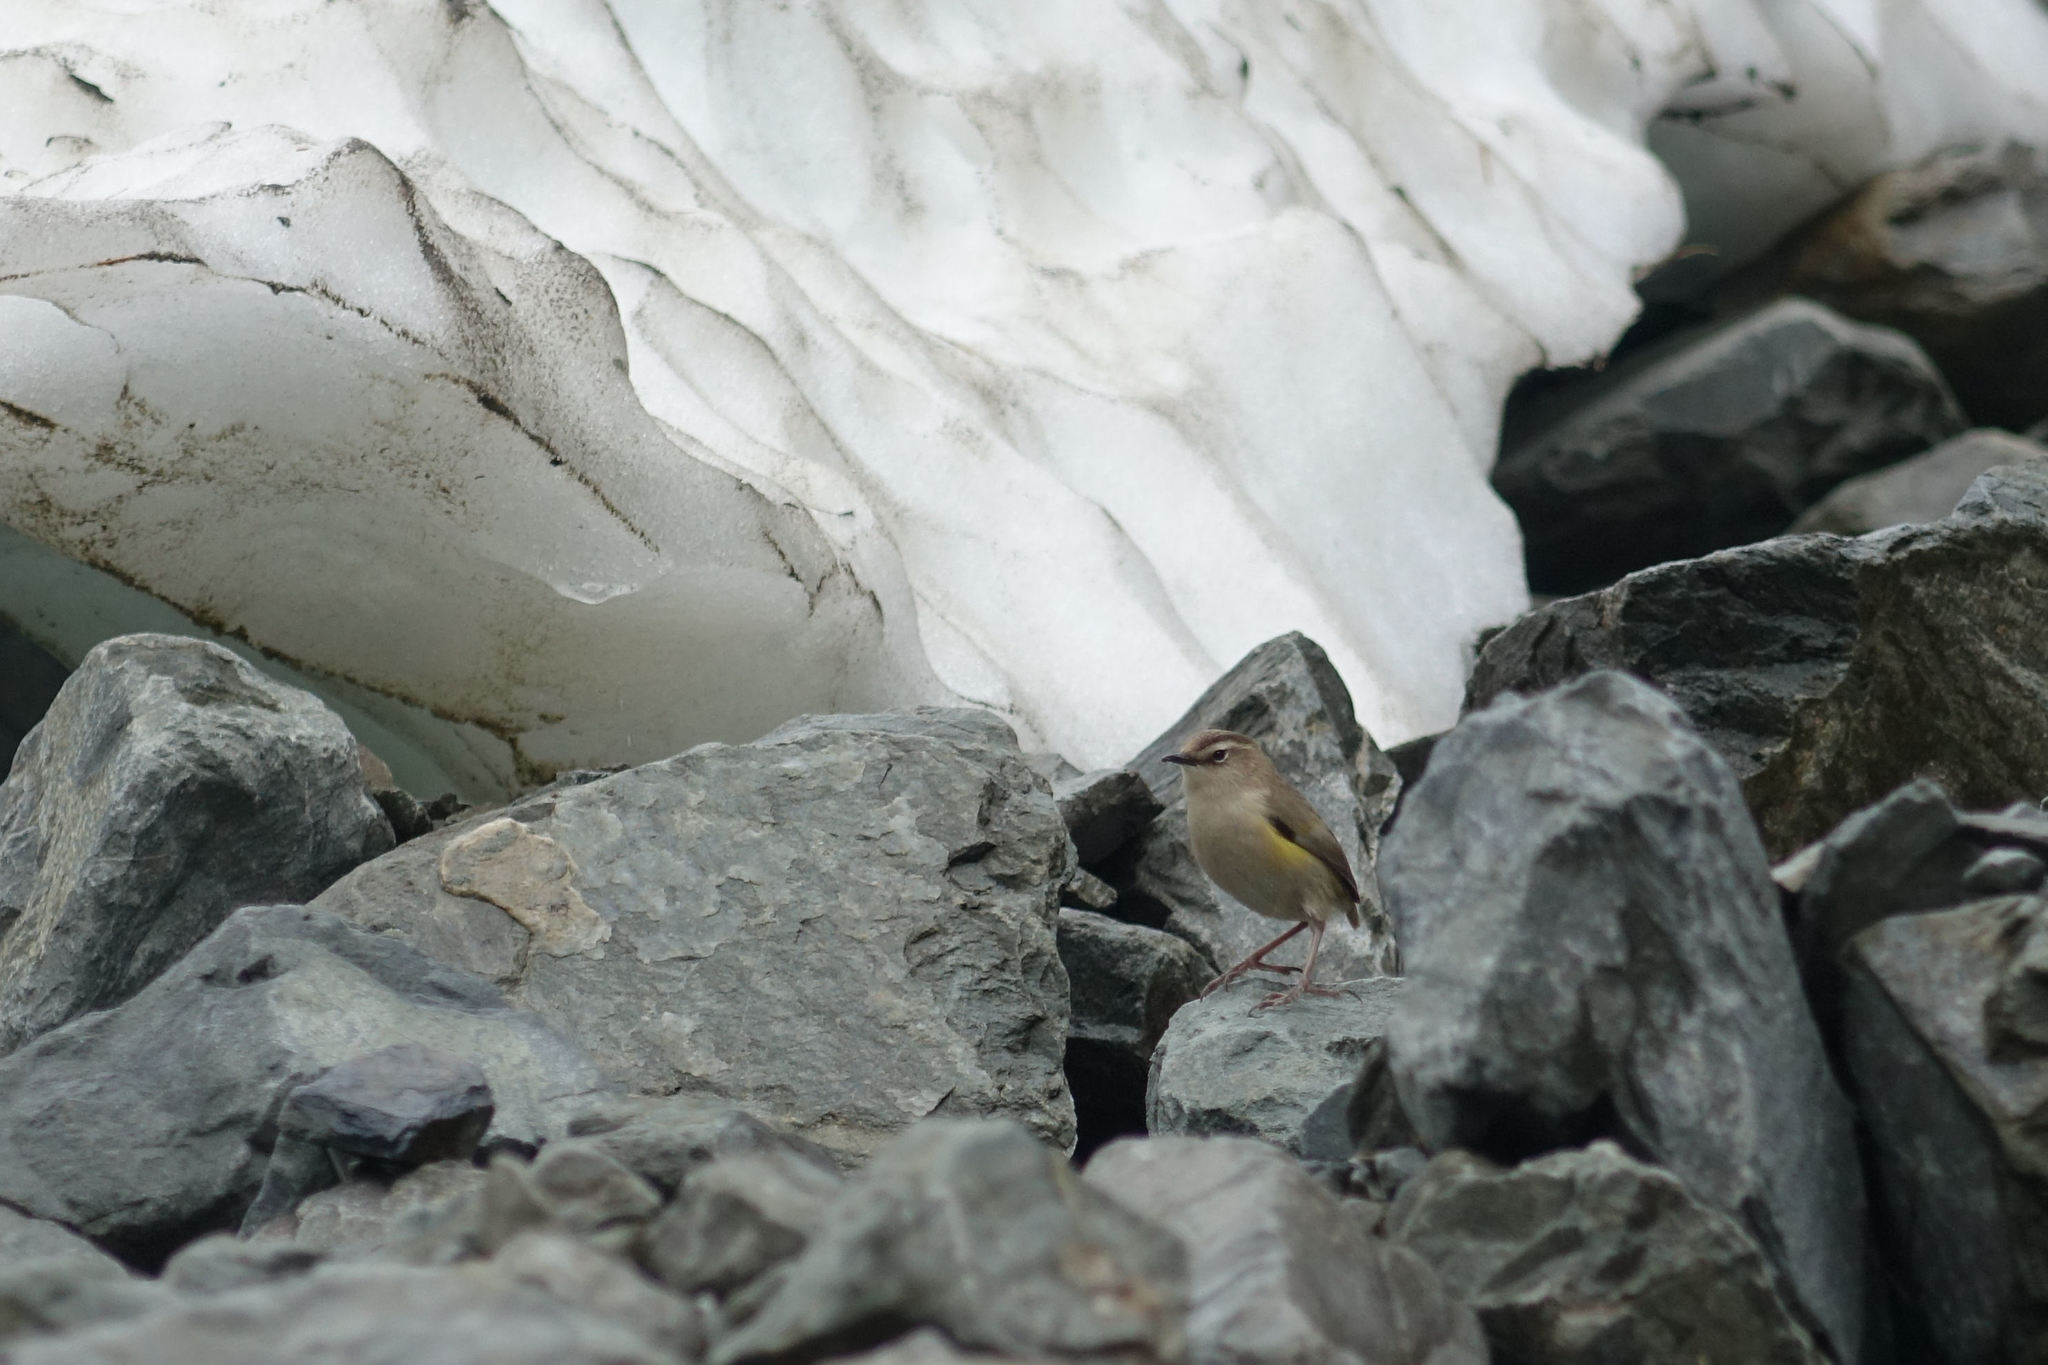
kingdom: Animalia
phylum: Chordata
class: Aves
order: Passeriformes
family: Acanthisittidae
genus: Xenicus
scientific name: Xenicus gilviventris
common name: New zealand rockwren
